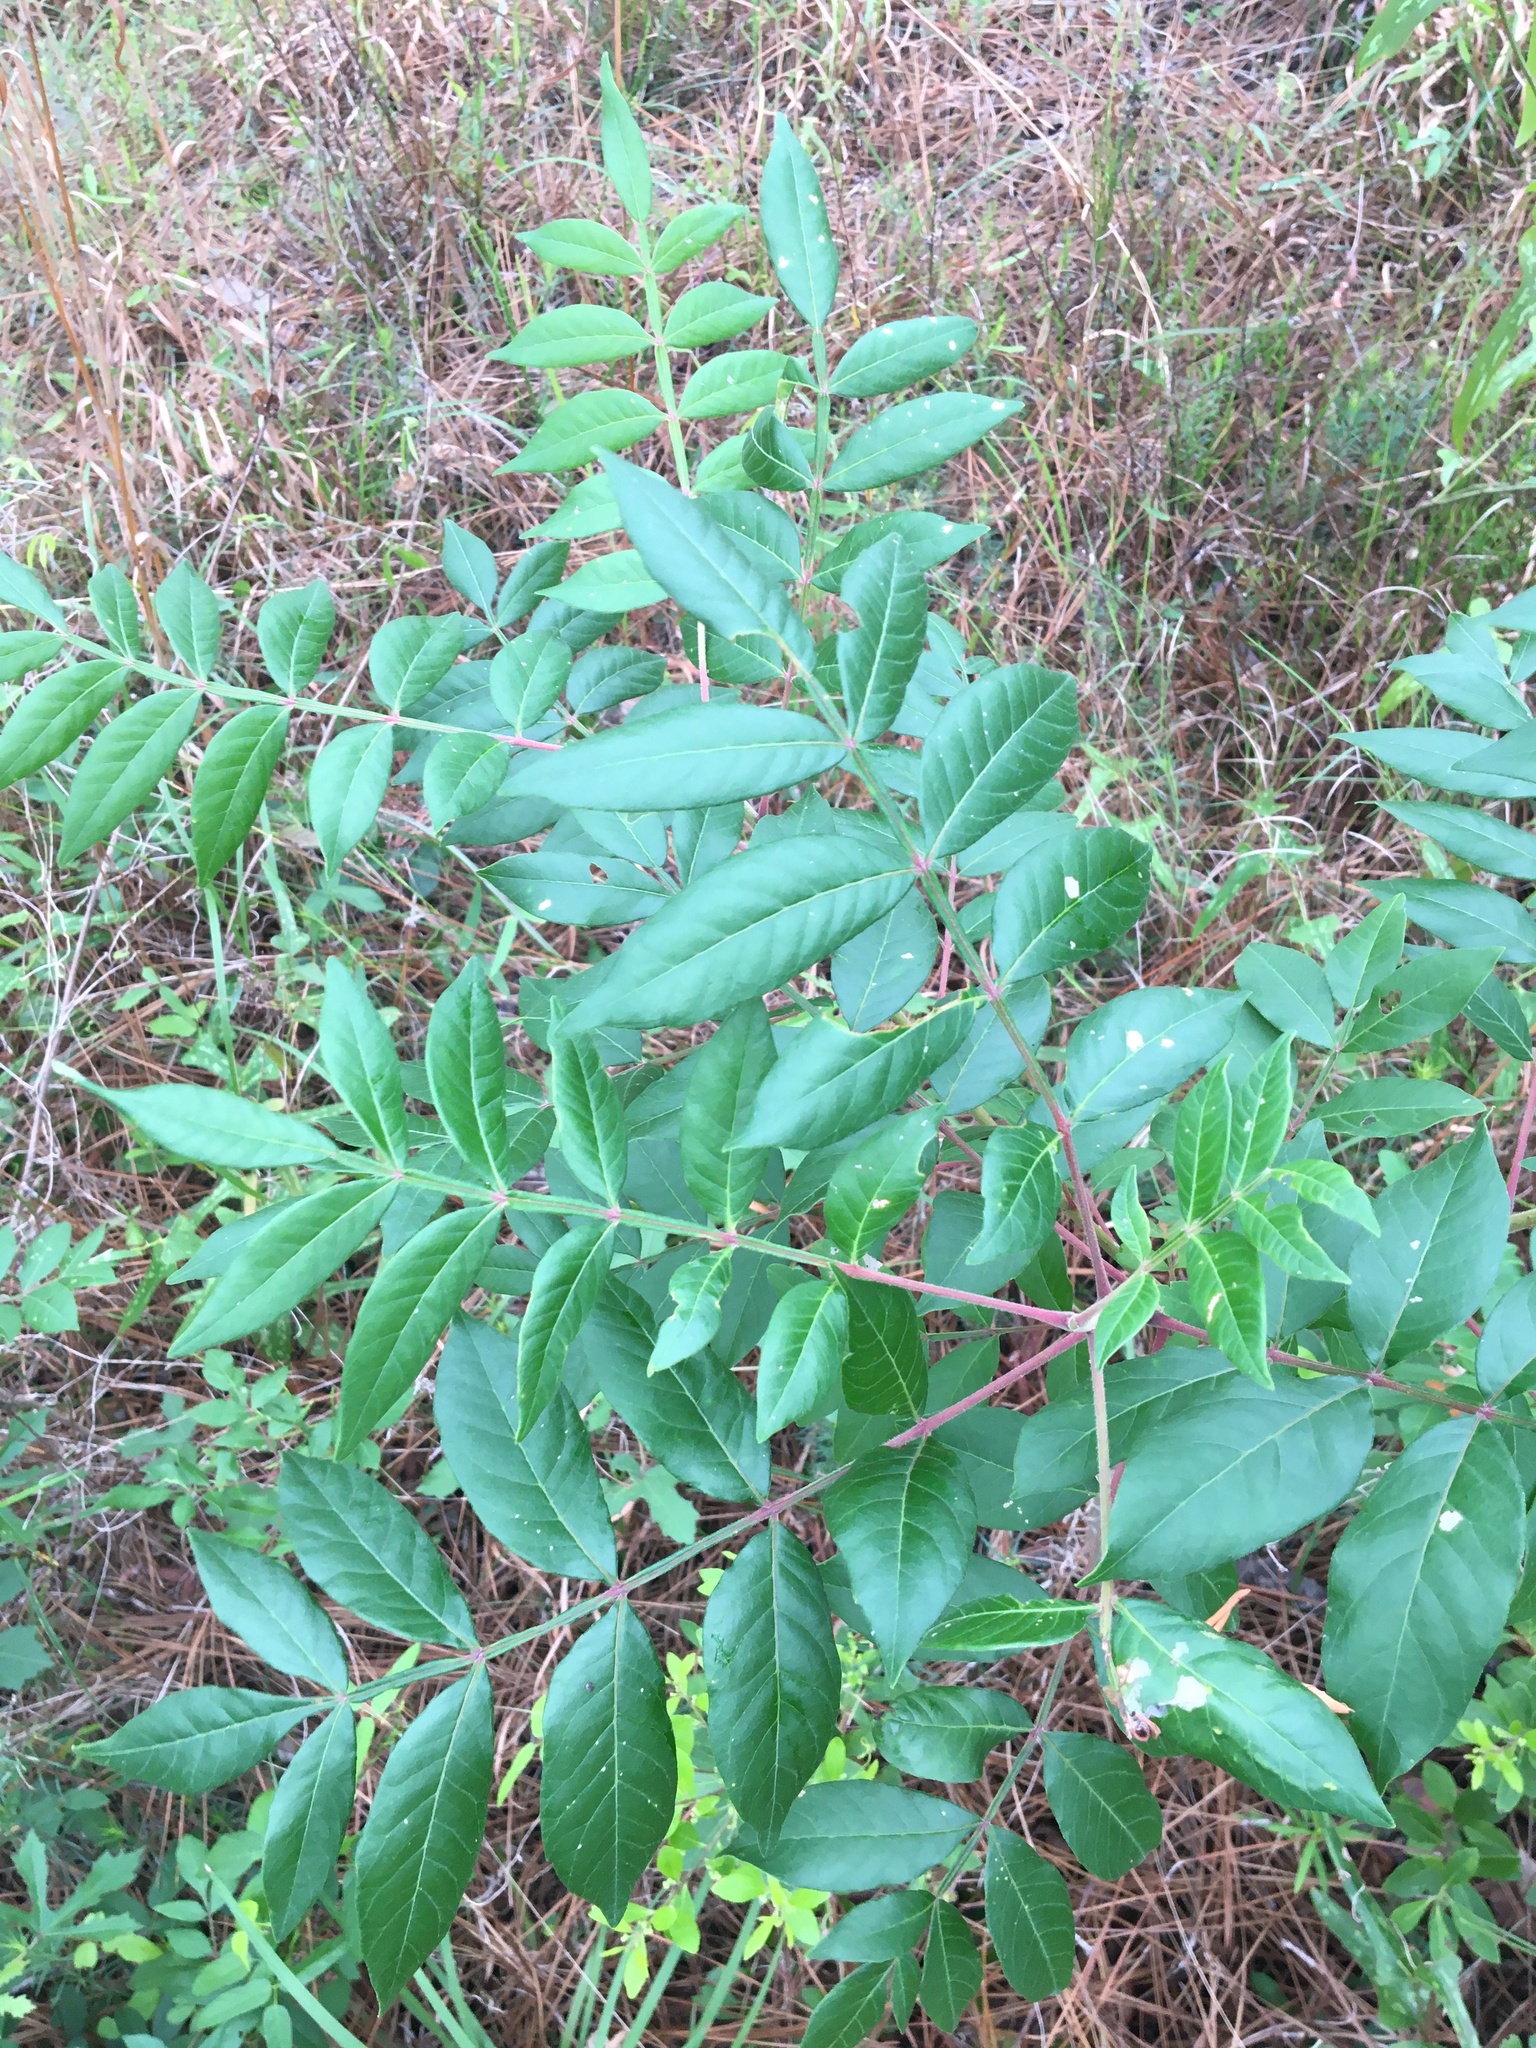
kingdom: Plantae
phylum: Tracheophyta
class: Magnoliopsida
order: Sapindales
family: Anacardiaceae
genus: Rhus
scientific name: Rhus copallina
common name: Shining sumac
